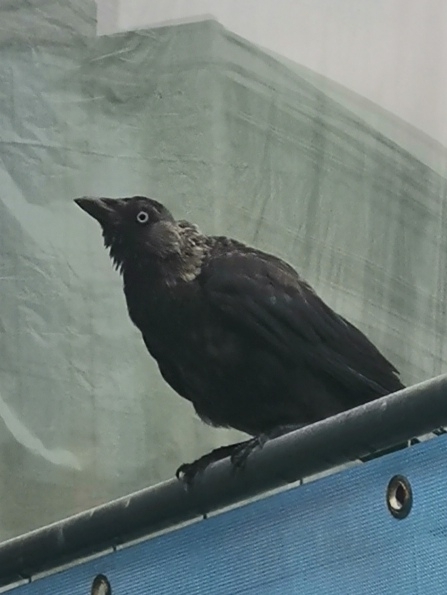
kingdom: Animalia
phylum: Chordata
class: Aves
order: Passeriformes
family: Corvidae
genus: Coloeus
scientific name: Coloeus monedula
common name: Western jackdaw
